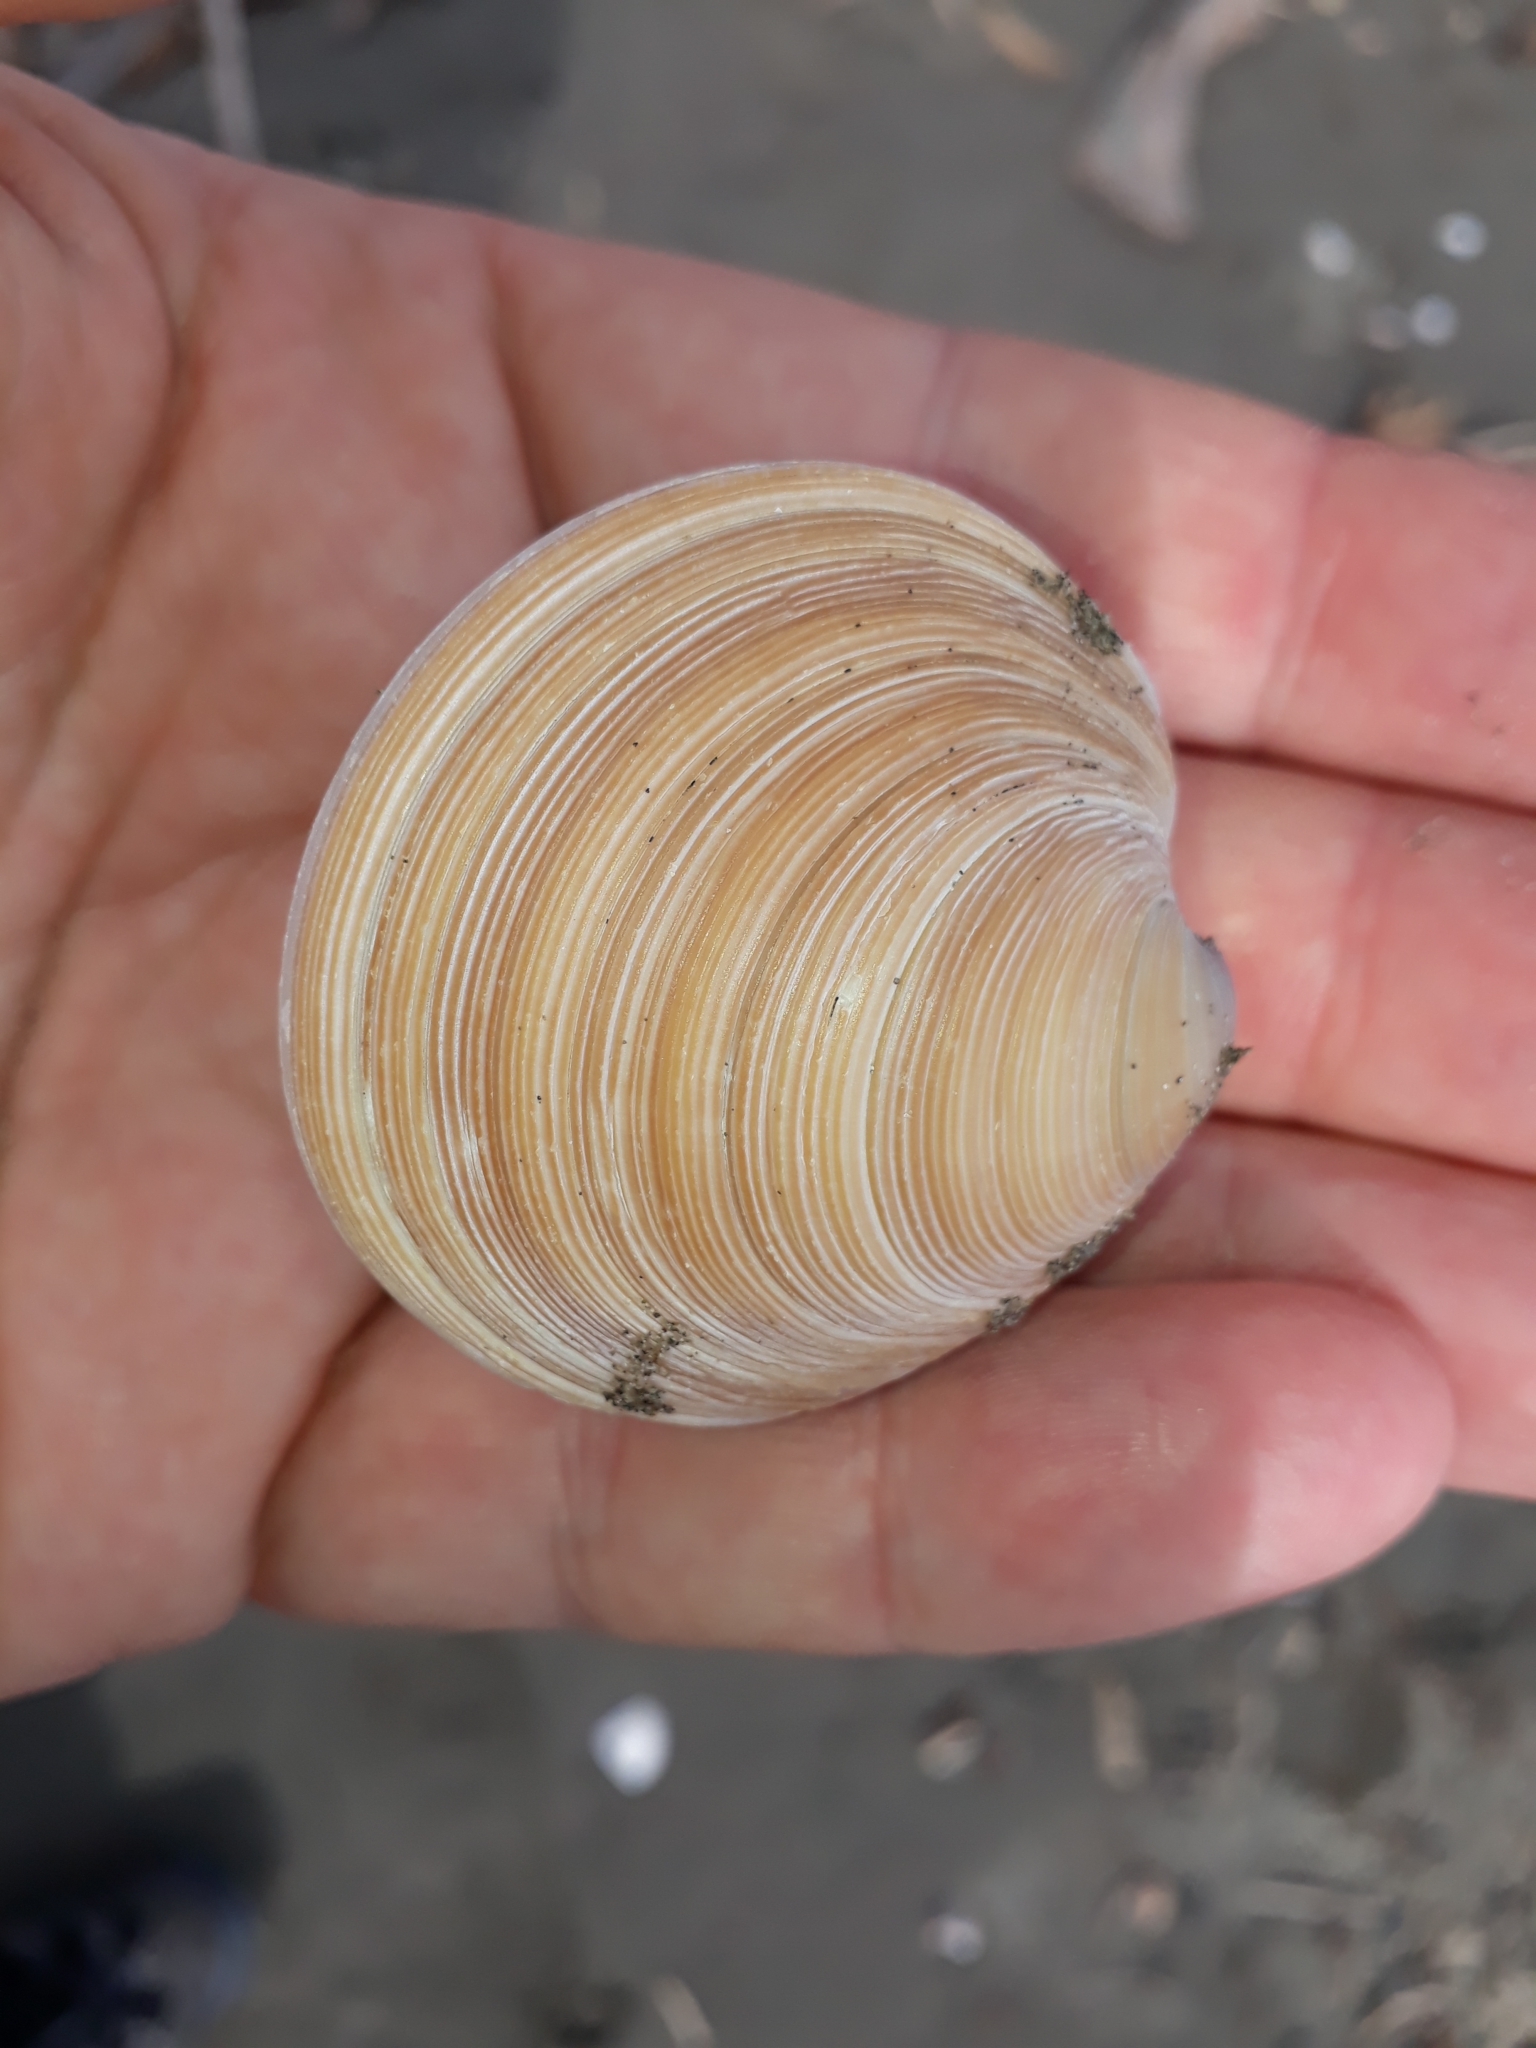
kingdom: Animalia
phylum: Mollusca
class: Bivalvia
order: Venerida
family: Veneridae
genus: Dosinia
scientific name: Dosinia anus
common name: Old-woman dosinia
